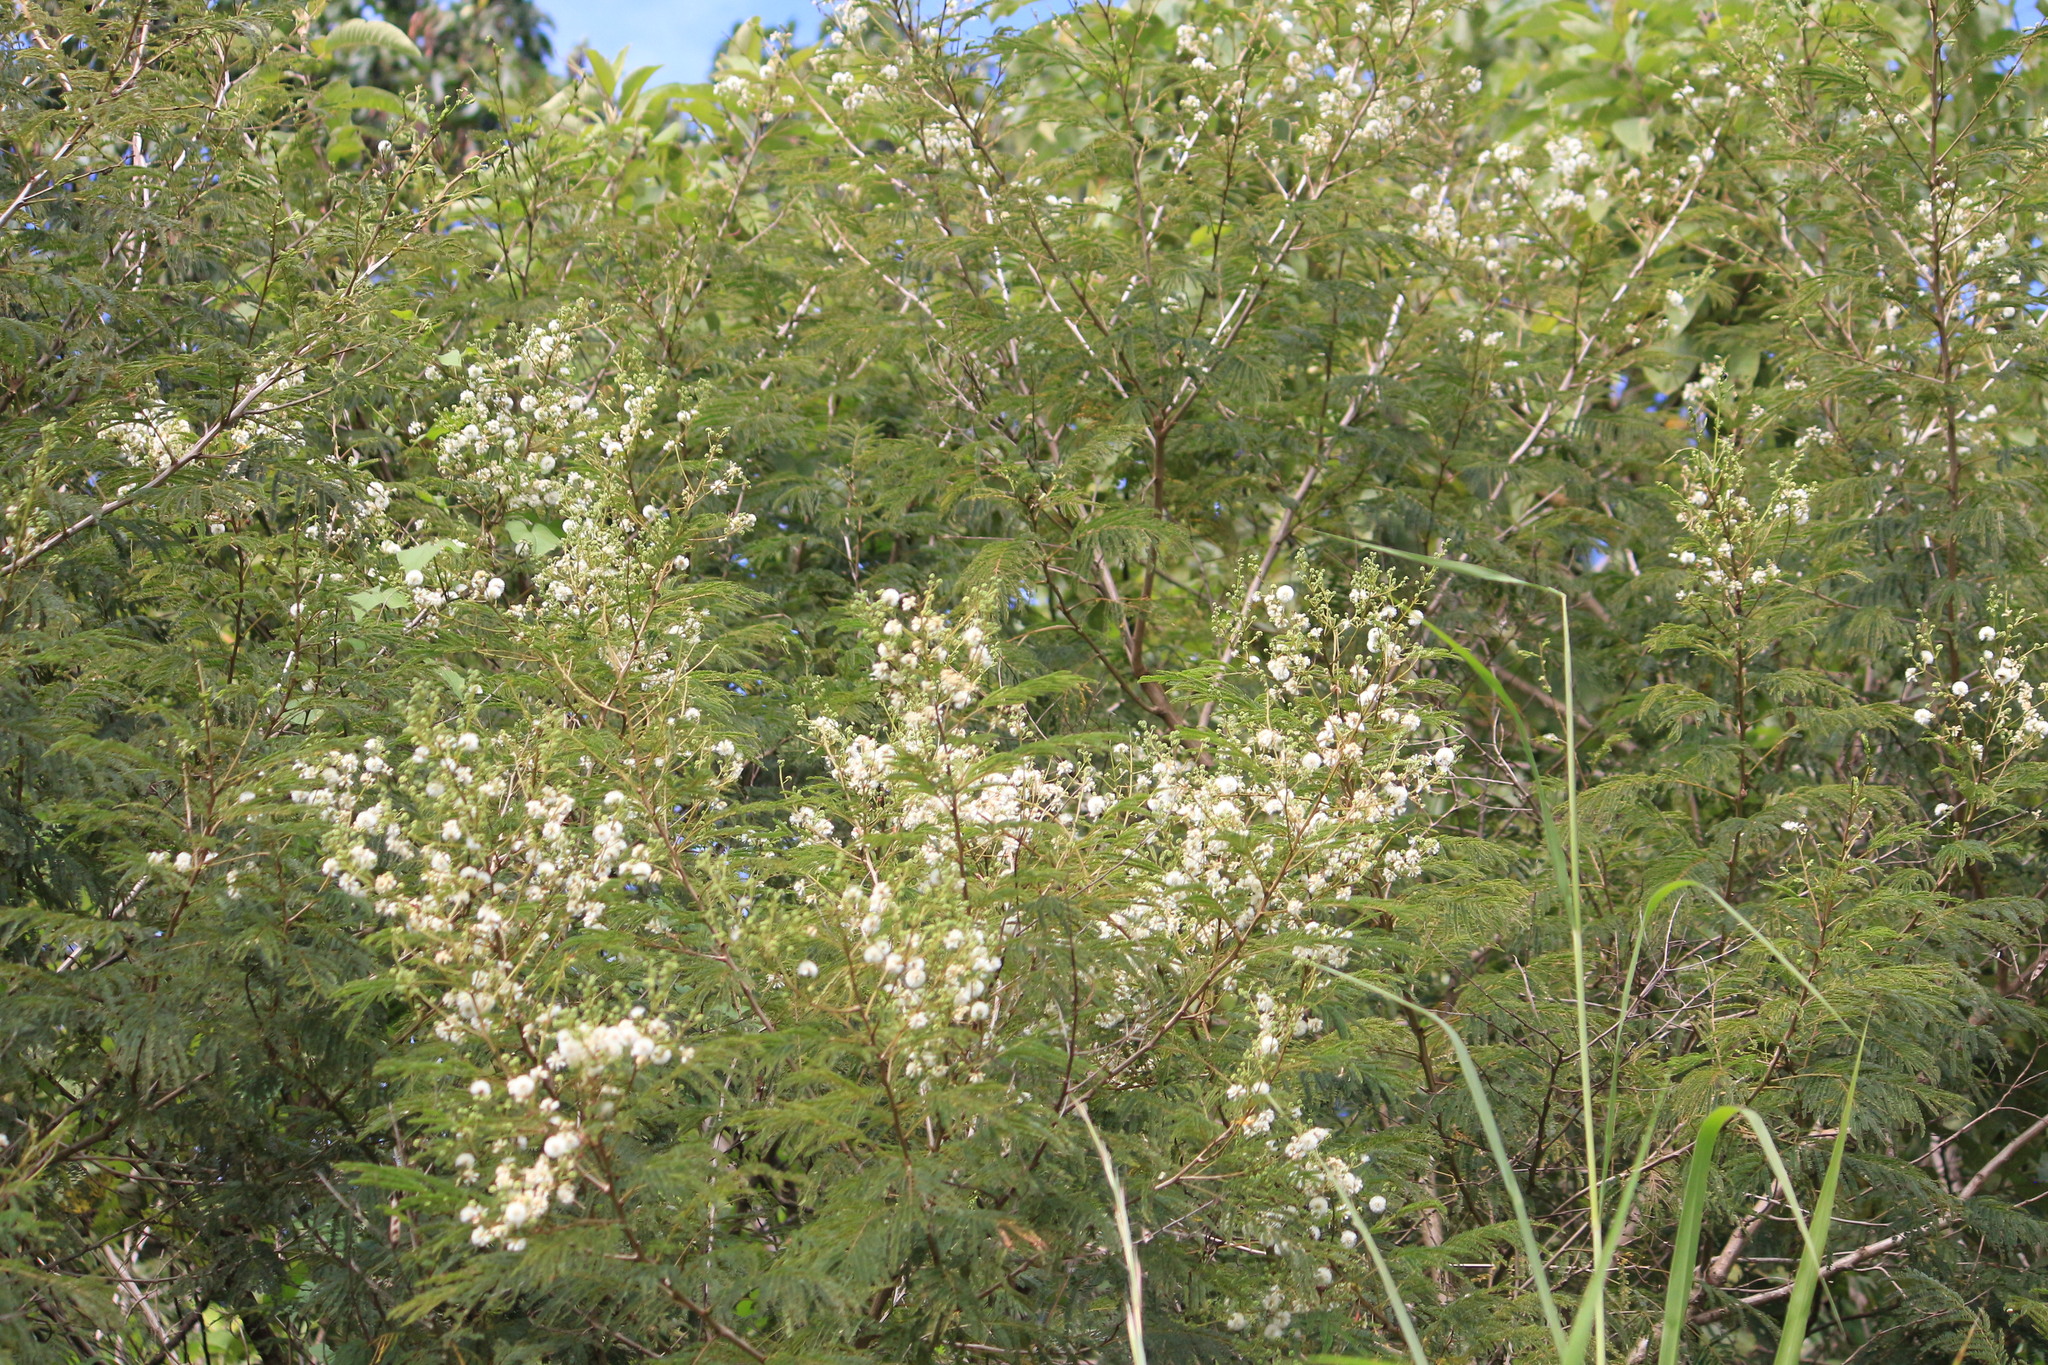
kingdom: Plantae
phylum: Tracheophyta
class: Magnoliopsida
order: Fabales
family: Fabaceae
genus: Acaciella
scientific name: Acaciella angustissima
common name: Prairie acacia
